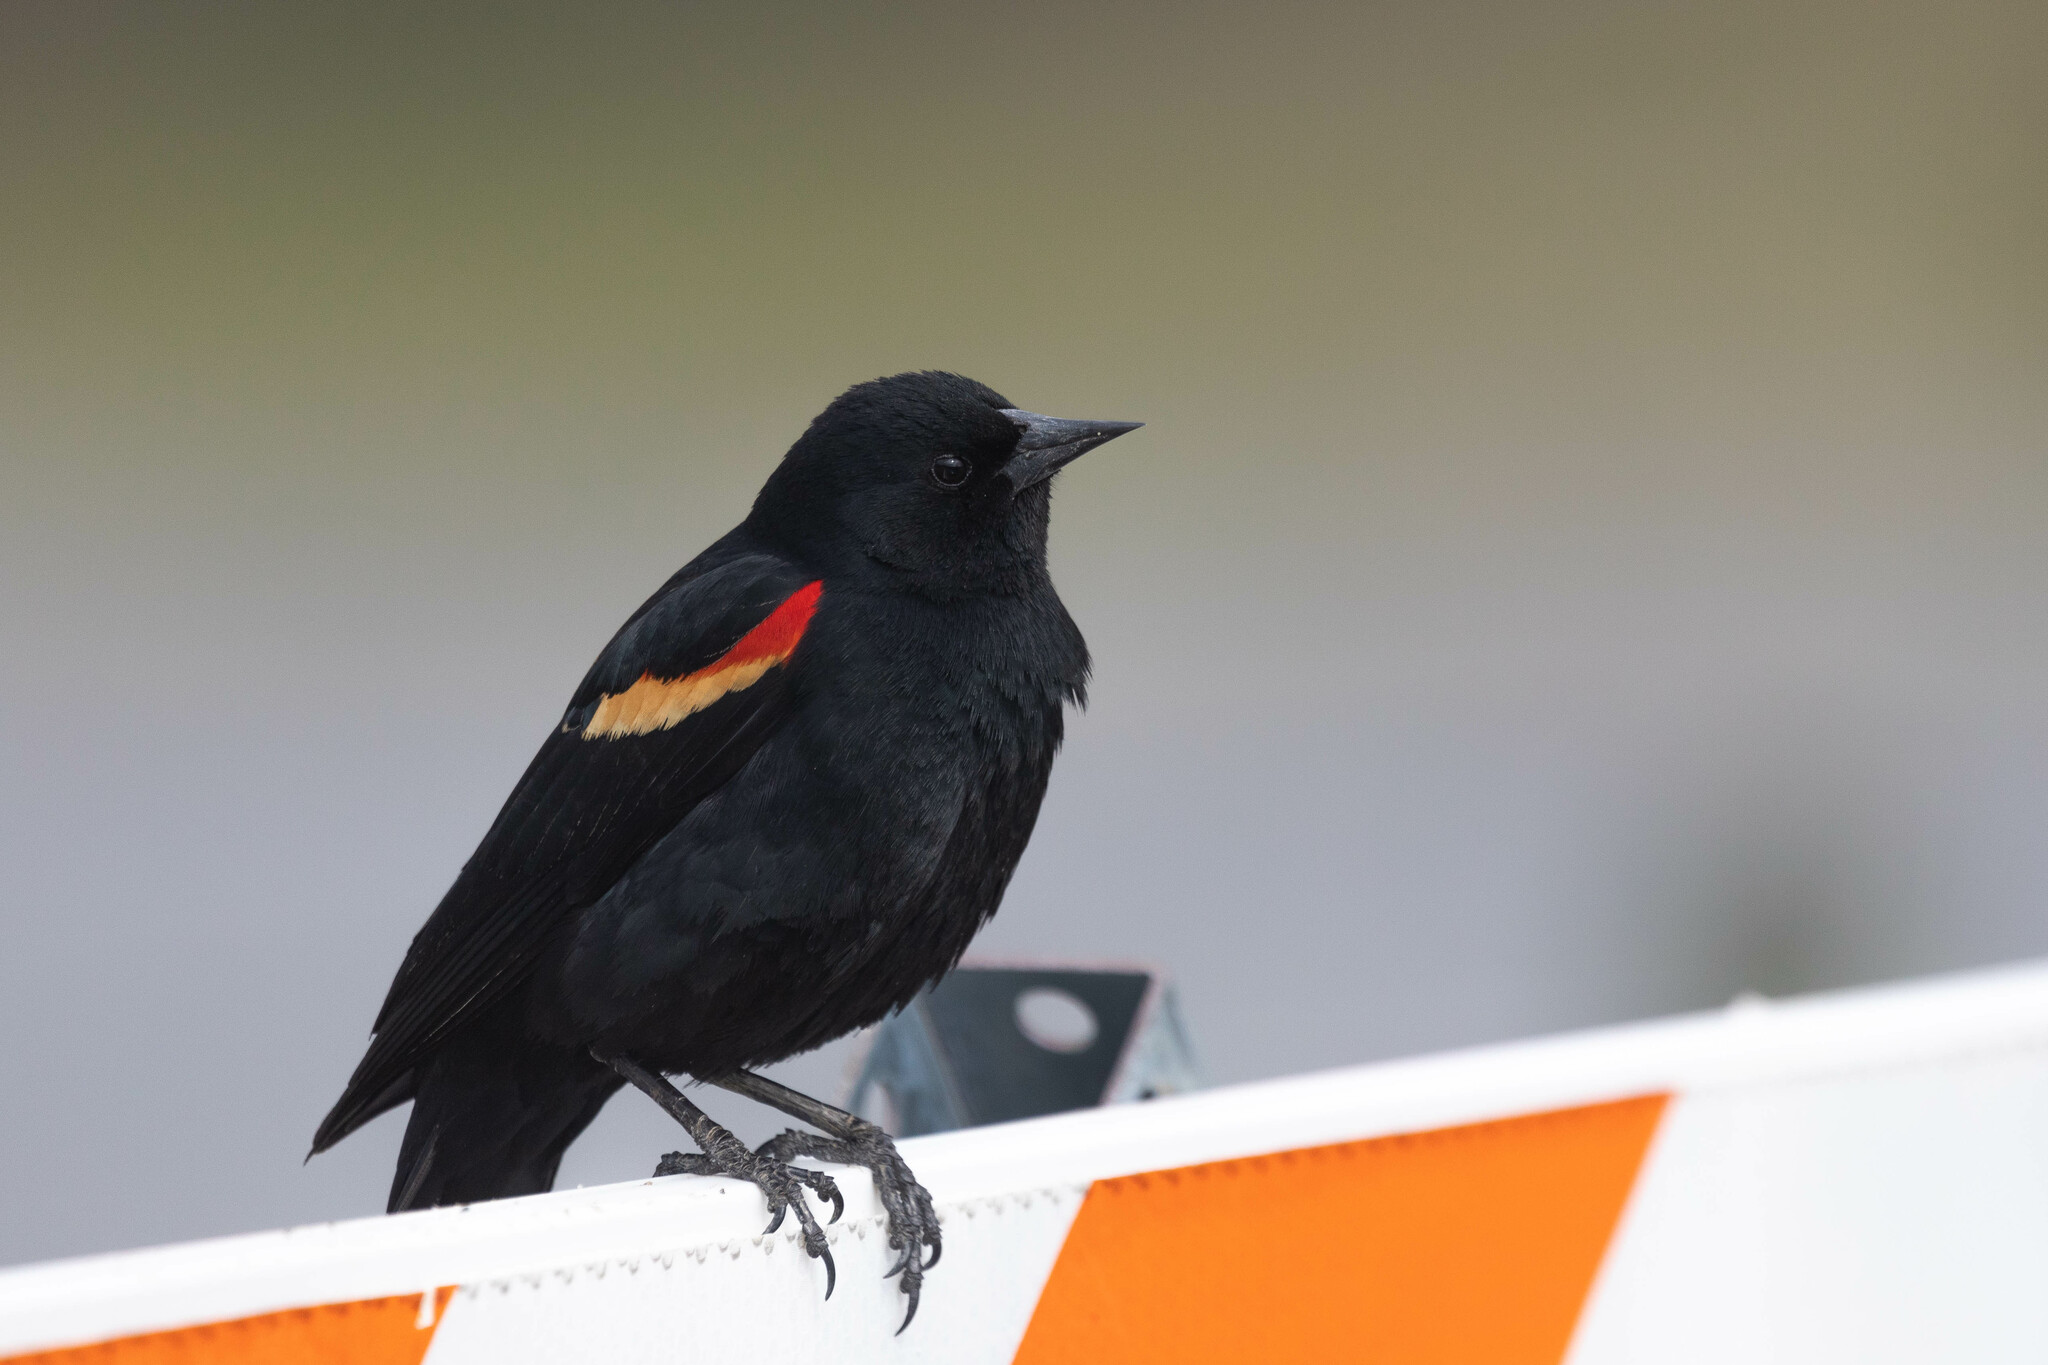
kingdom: Animalia
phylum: Chordata
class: Aves
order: Passeriformes
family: Icteridae
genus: Agelaius
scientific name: Agelaius phoeniceus
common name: Red-winged blackbird
